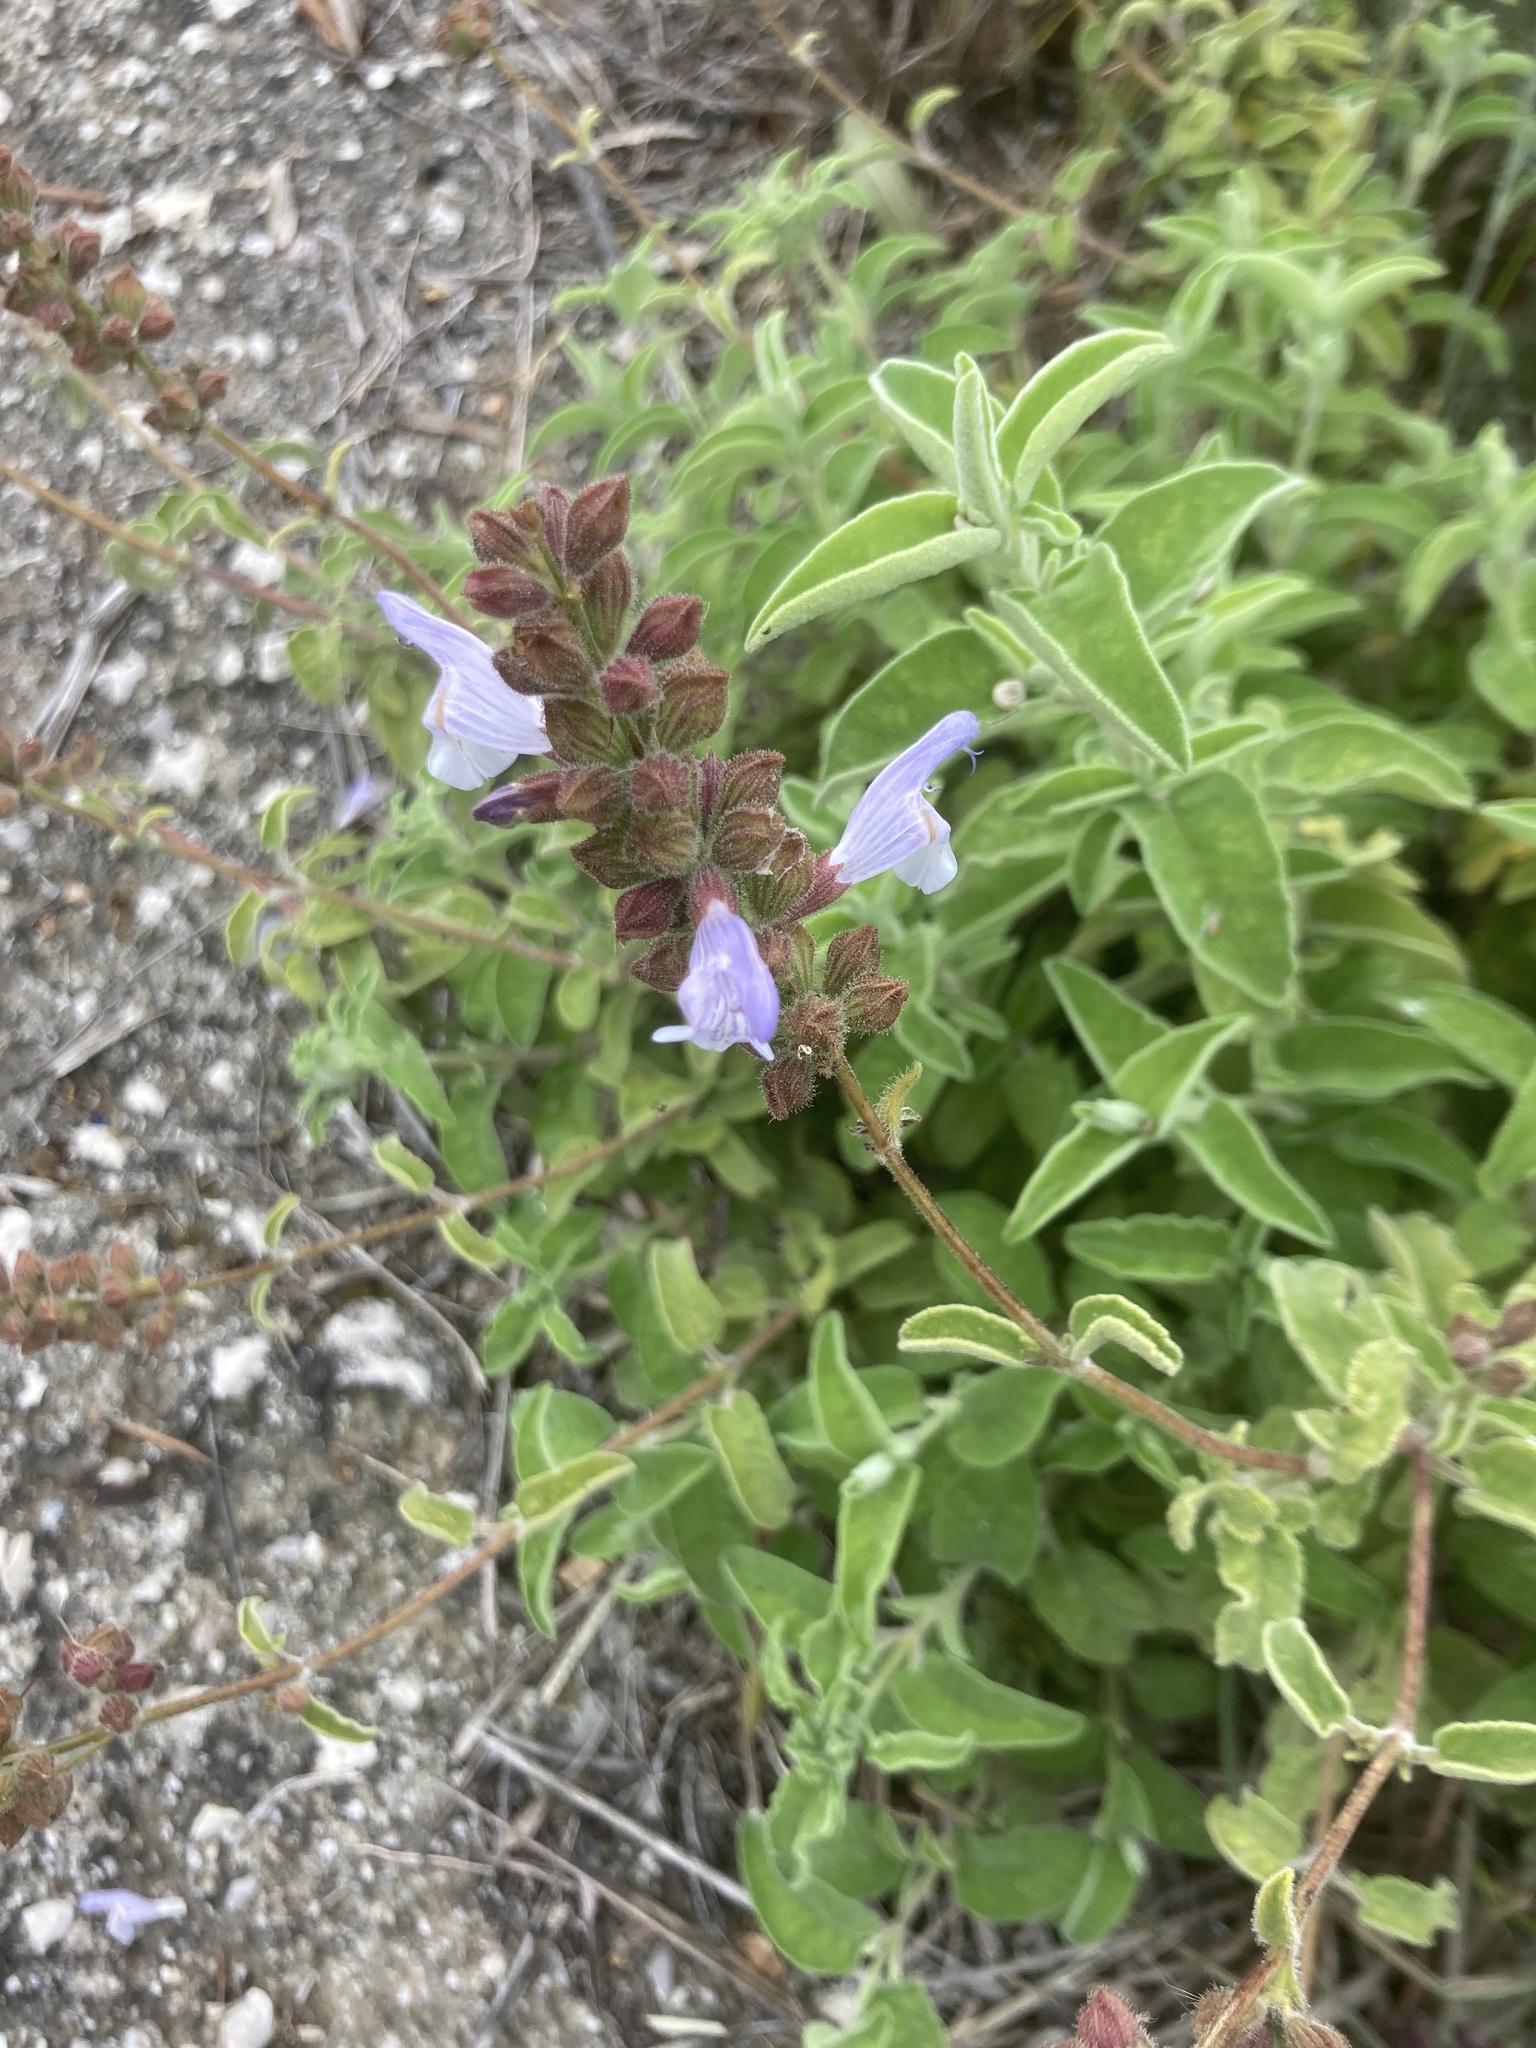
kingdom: Plantae
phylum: Tracheophyta
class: Magnoliopsida
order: Lamiales
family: Lamiaceae
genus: Salvia
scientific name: Salvia fruticosa
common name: Greek sage
